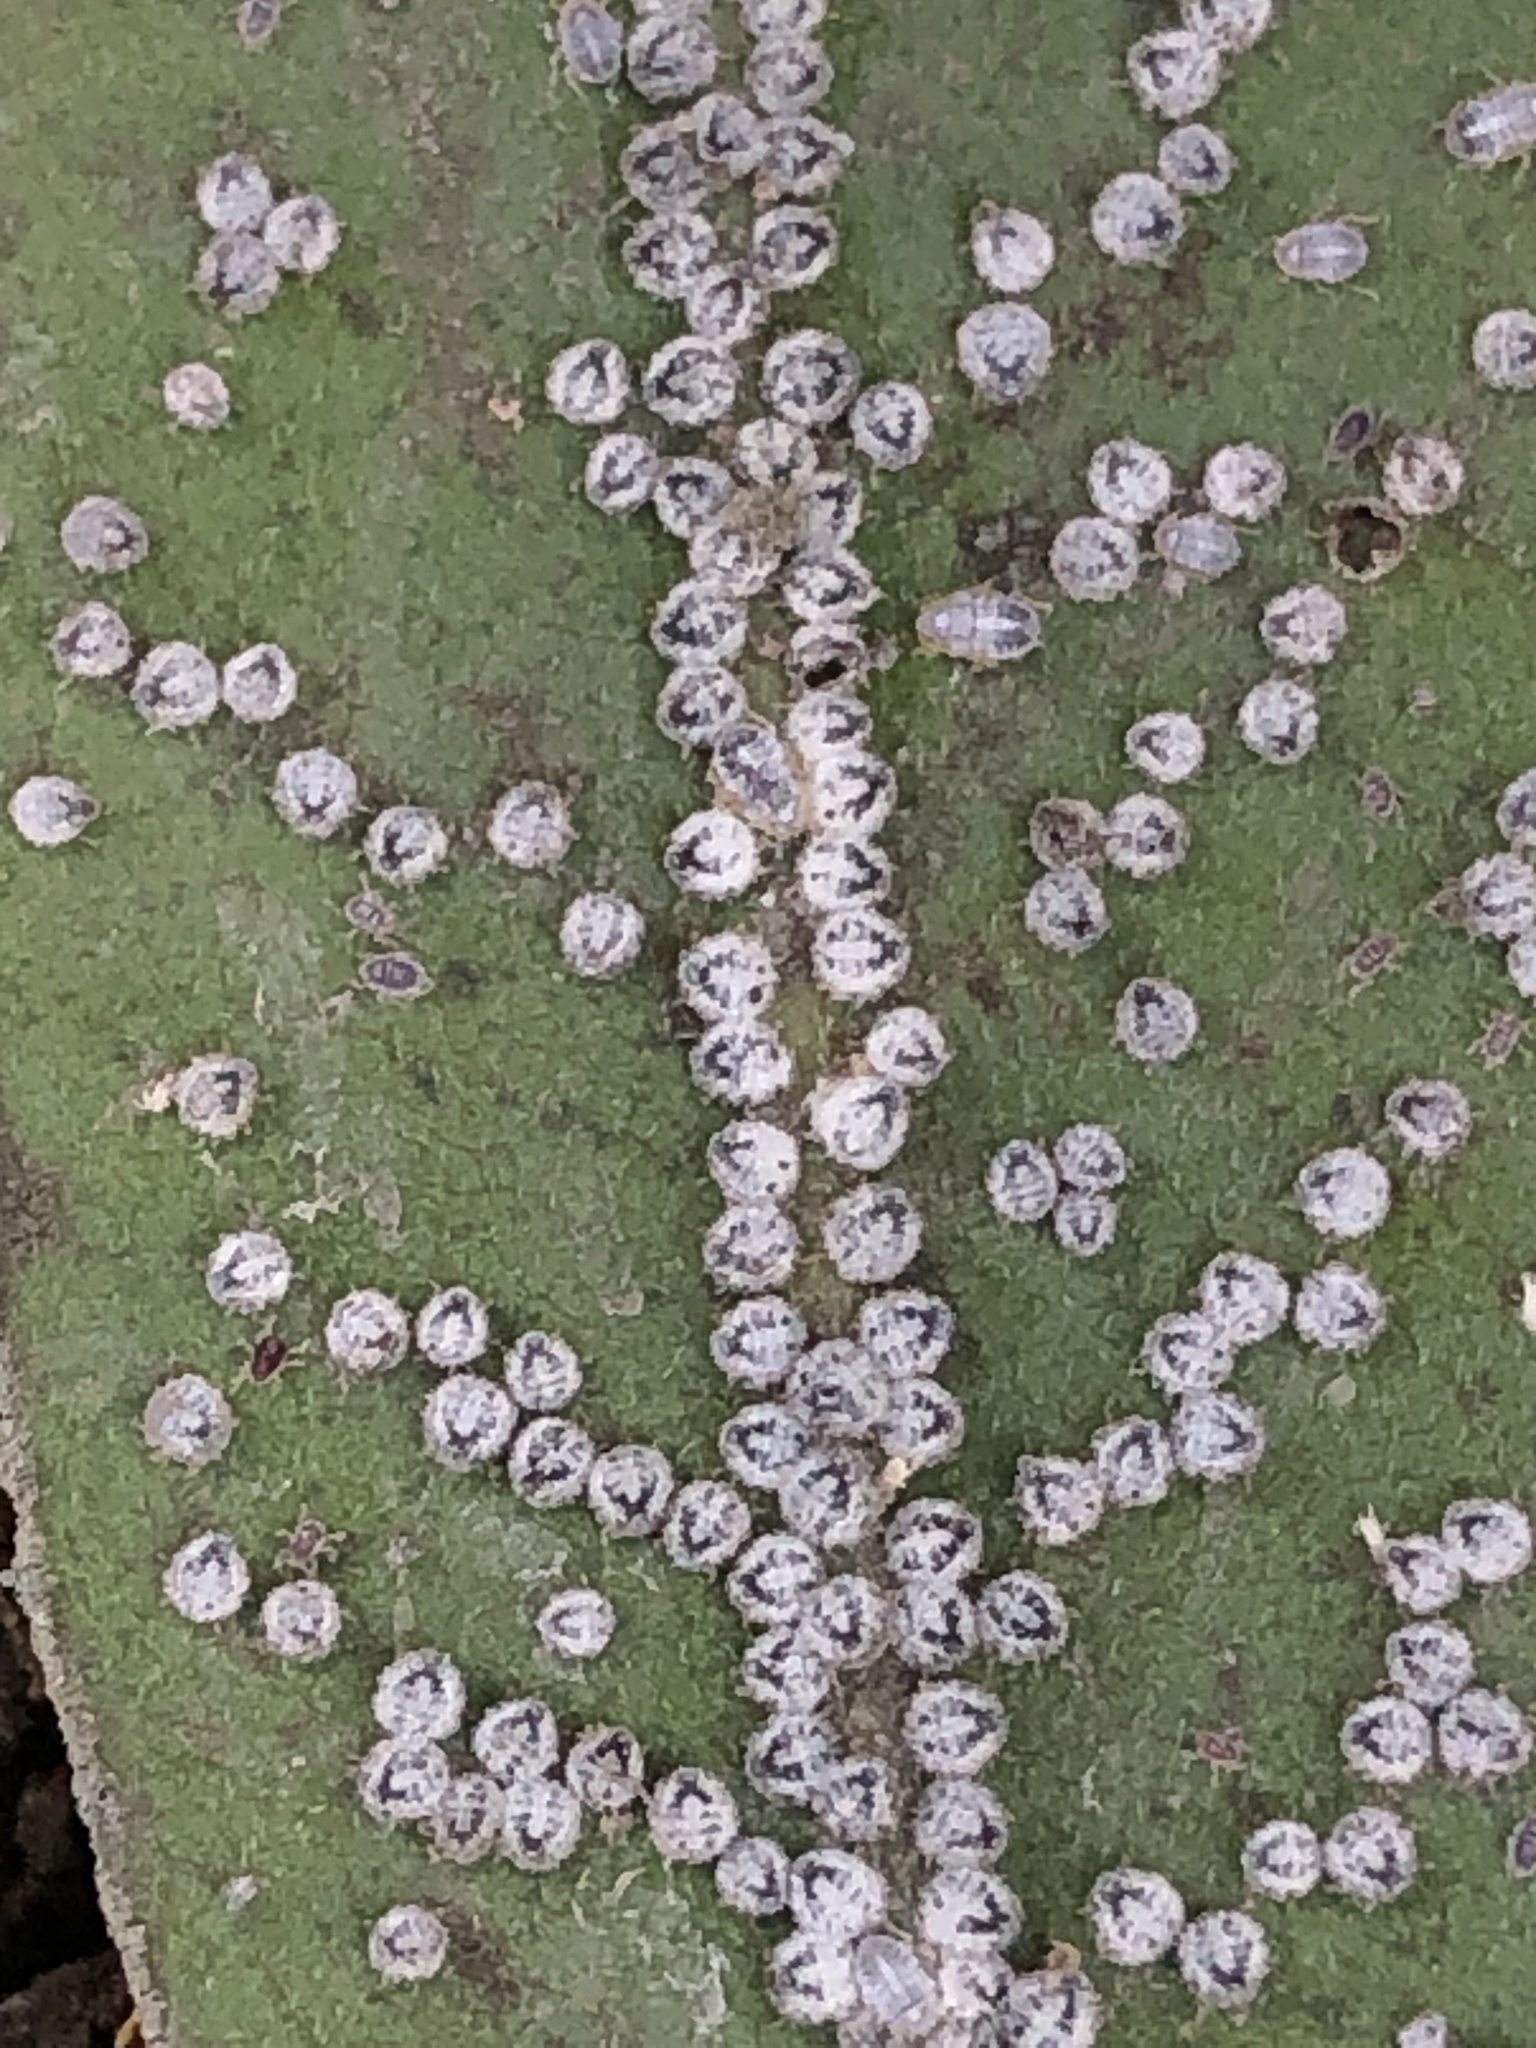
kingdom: Animalia
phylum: Arthropoda
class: Insecta
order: Hemiptera
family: Aphididae
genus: Euthoracaphis
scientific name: Euthoracaphis umbellulariae
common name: Aphid
